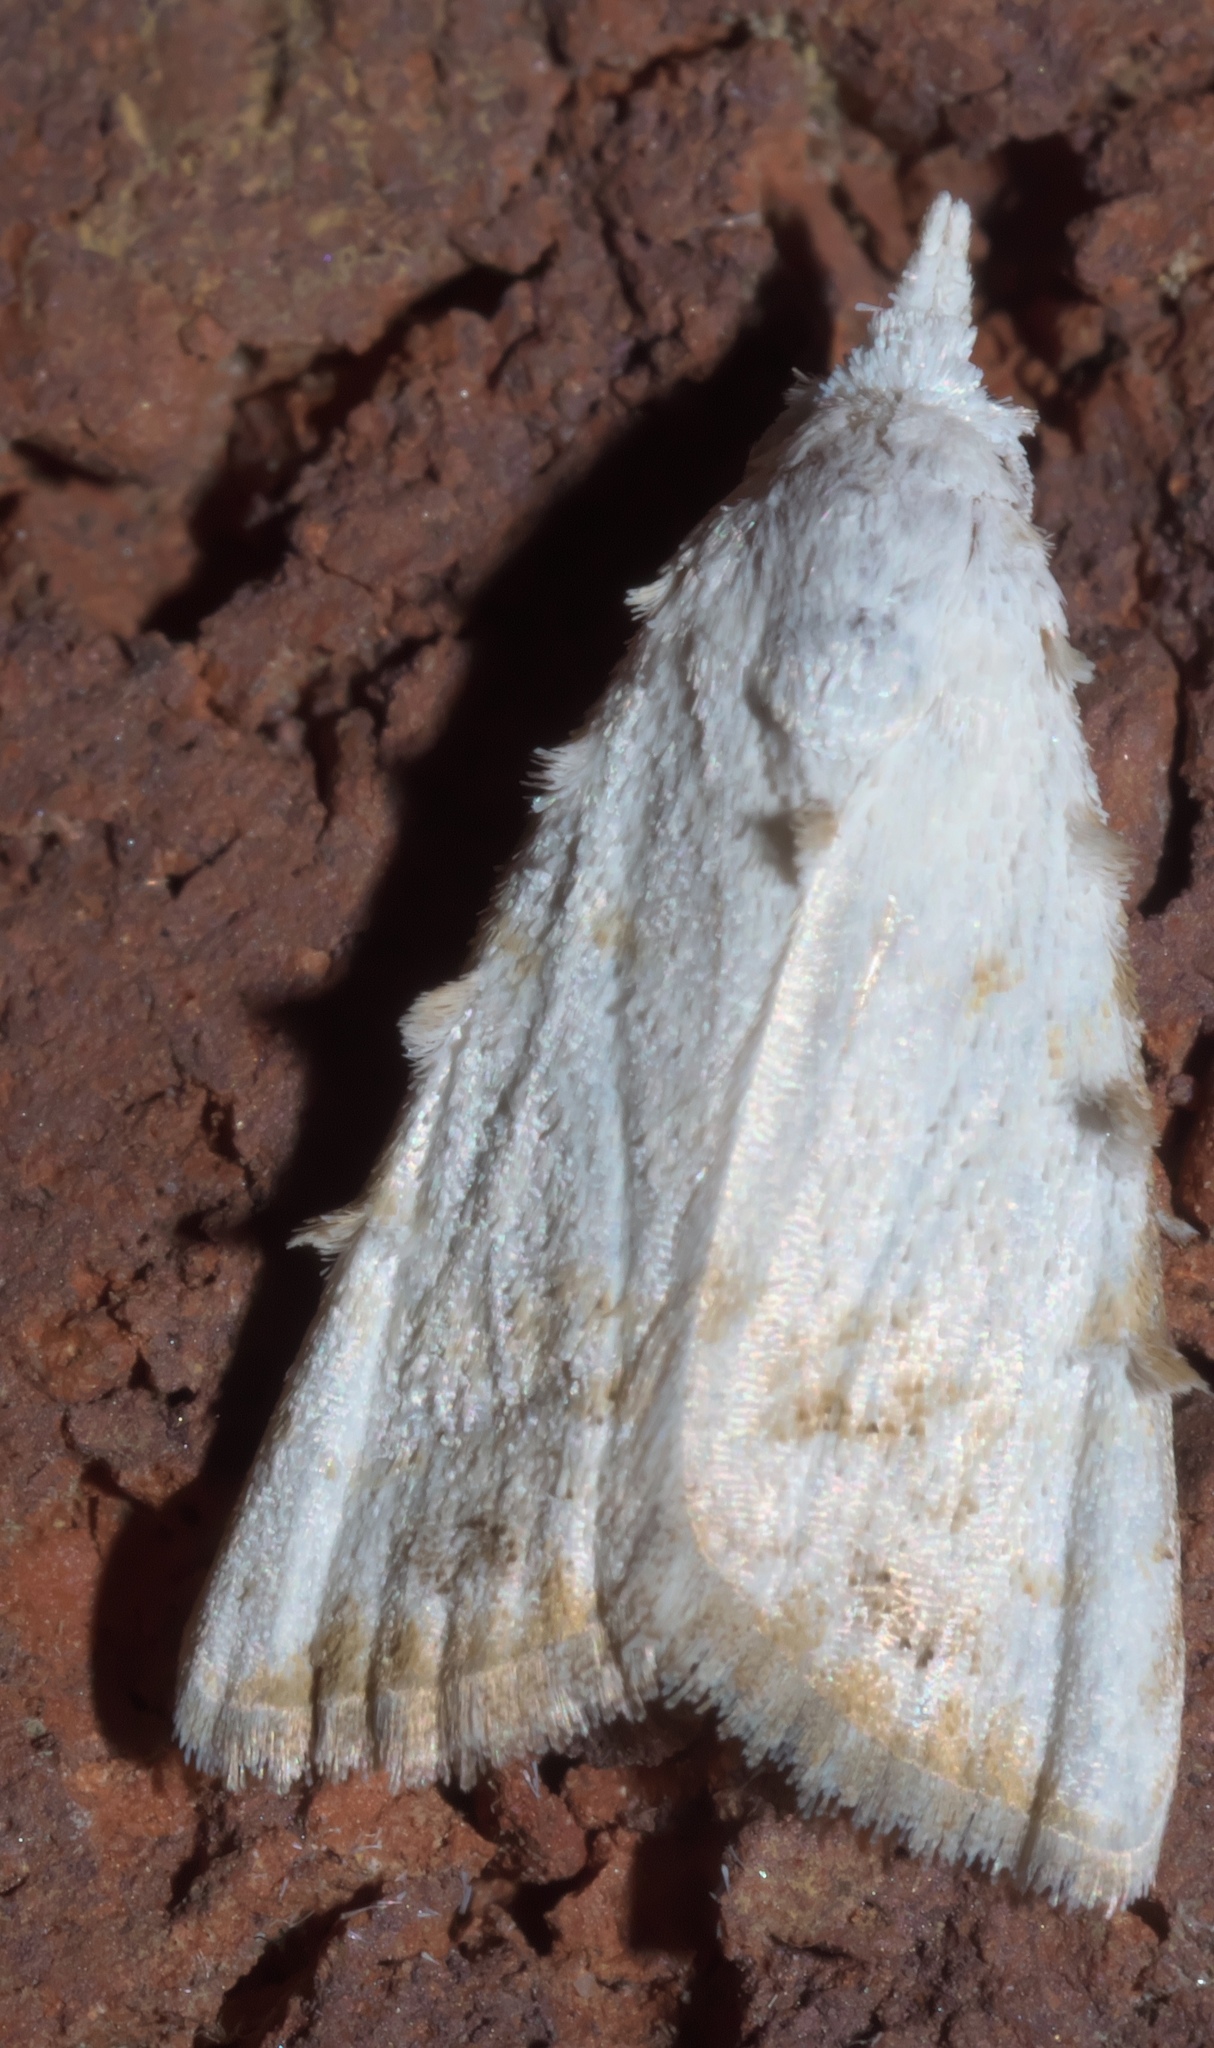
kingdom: Animalia
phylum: Arthropoda
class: Insecta
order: Lepidoptera
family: Nolidae
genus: Nola
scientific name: Nola cereella
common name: Sorghum webworm moth
